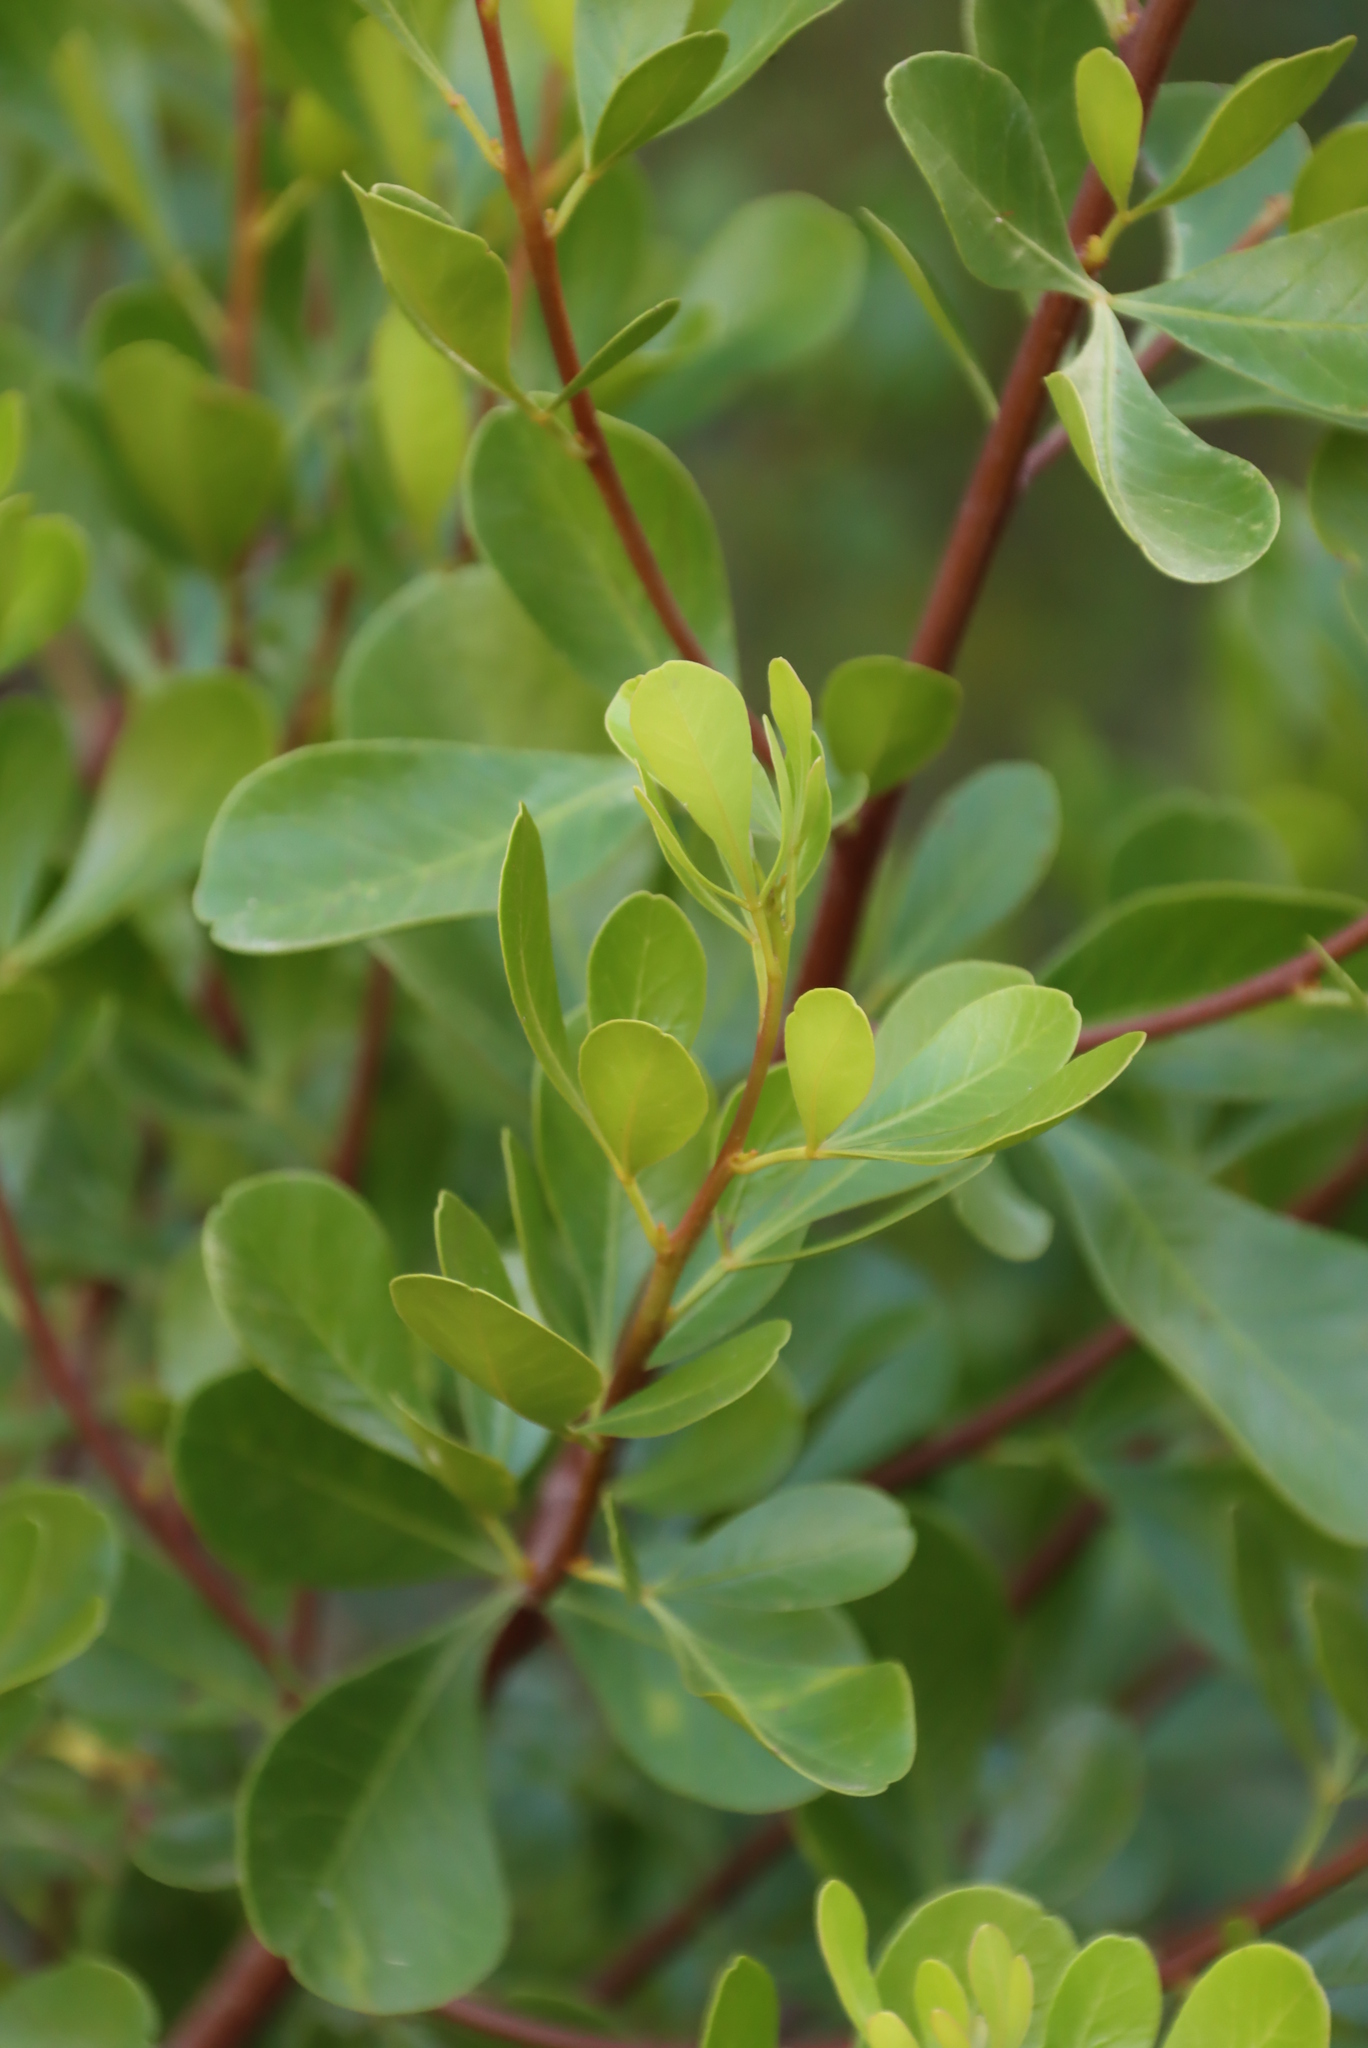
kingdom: Plantae
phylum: Tracheophyta
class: Magnoliopsida
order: Sapindales
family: Anacardiaceae
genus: Searsia
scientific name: Searsia lucida
